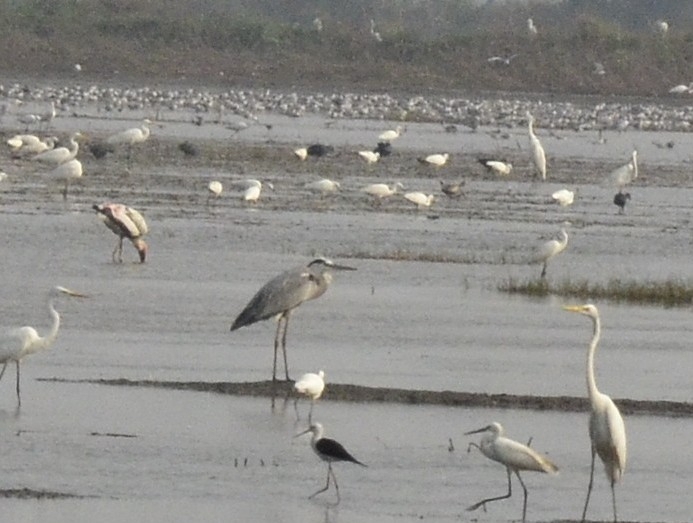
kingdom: Animalia
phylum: Chordata
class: Aves
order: Pelecaniformes
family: Ardeidae
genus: Ardea
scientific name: Ardea cinerea
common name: Grey heron
